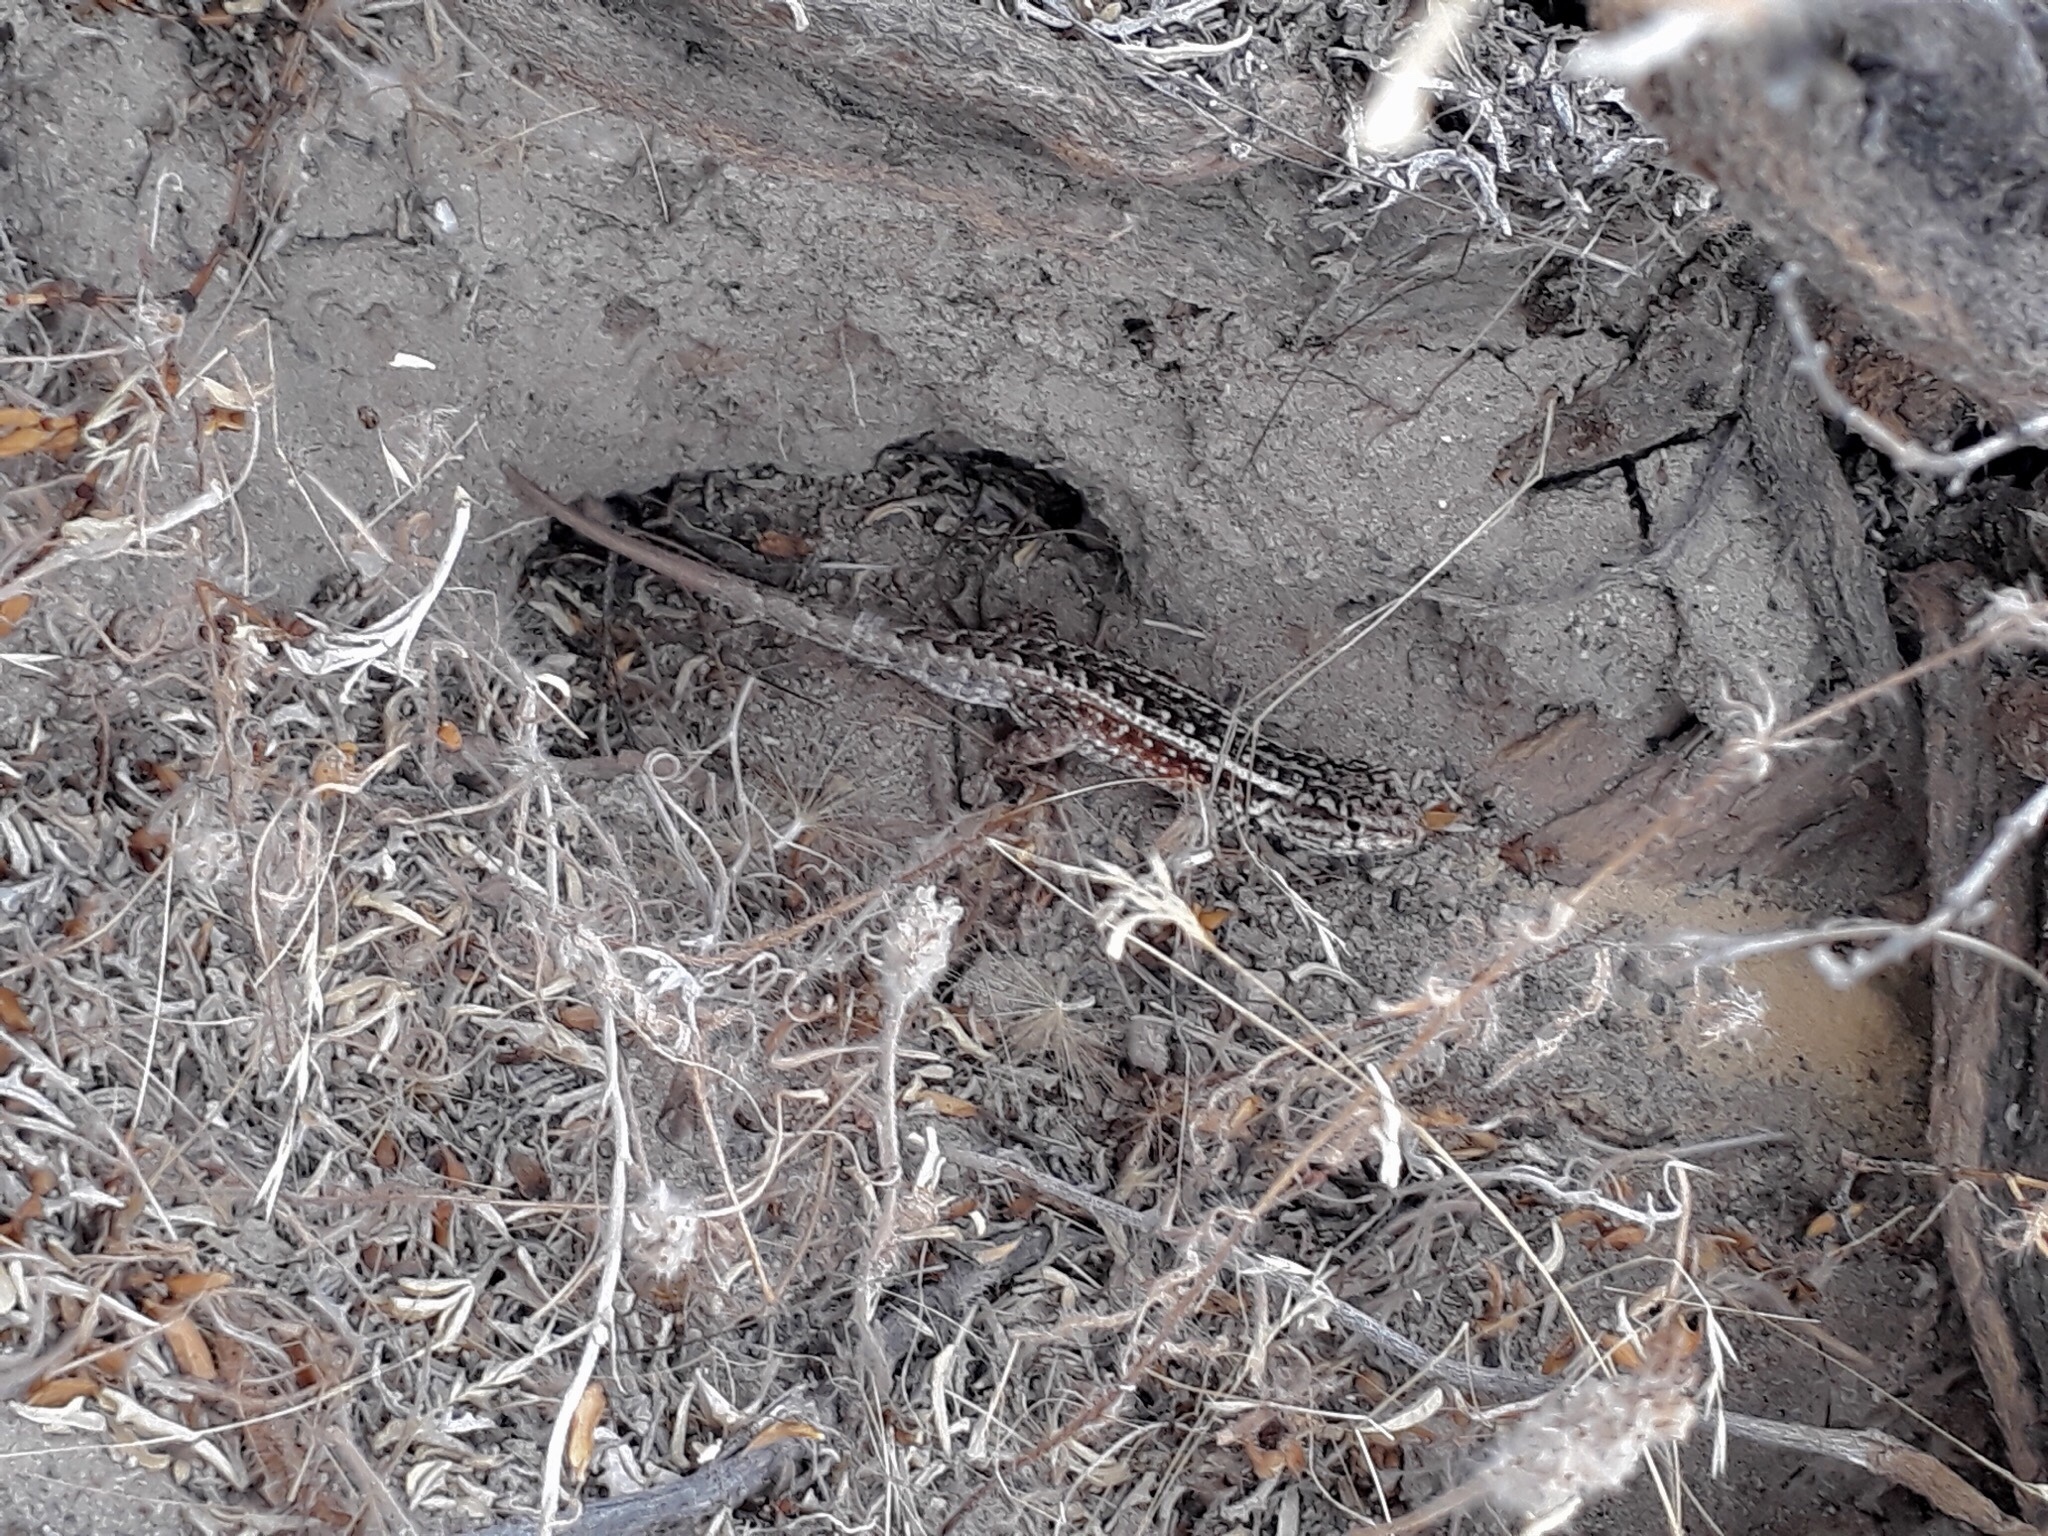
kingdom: Animalia
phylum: Chordata
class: Squamata
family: Liolaemidae
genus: Liolaemus
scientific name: Liolaemus darwinii
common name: Darwin's tree iguana
